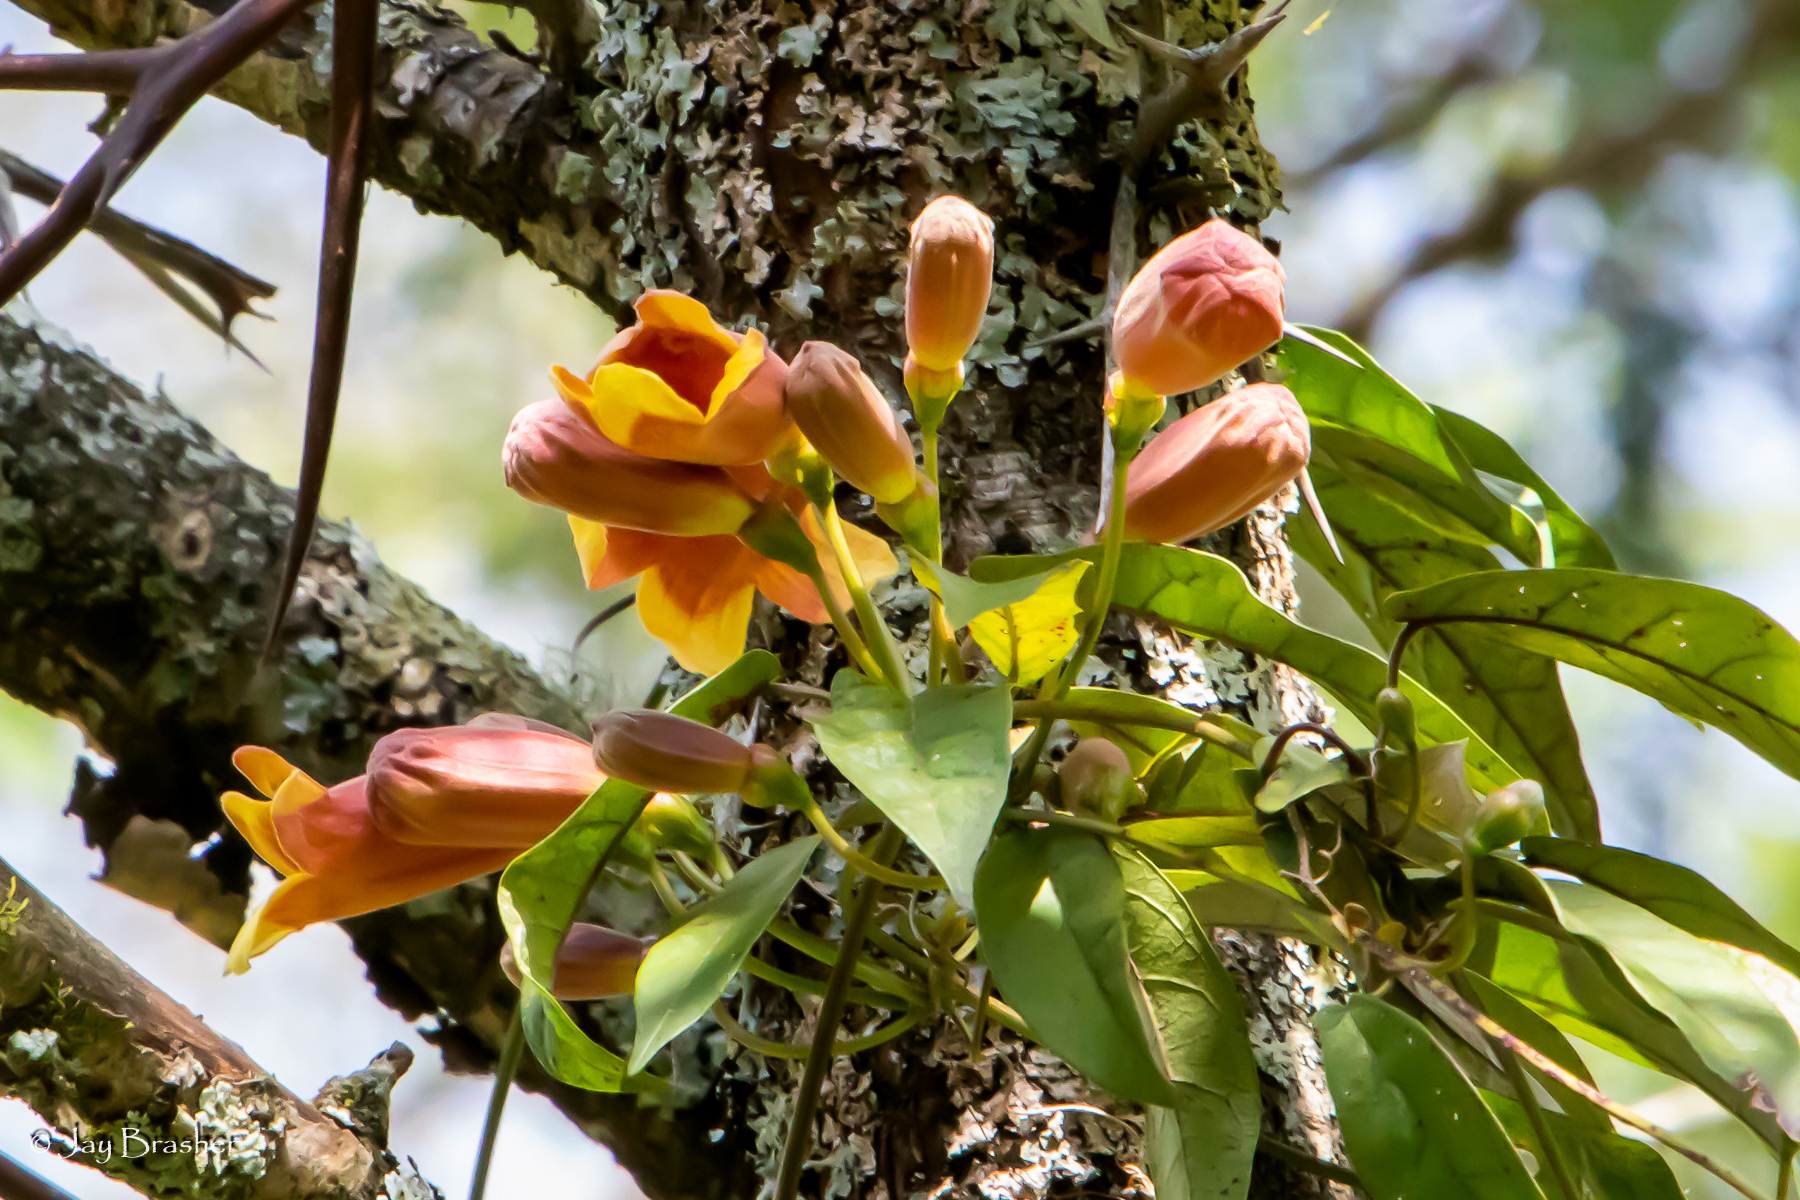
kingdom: Plantae
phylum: Tracheophyta
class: Magnoliopsida
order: Lamiales
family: Bignoniaceae
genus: Bignonia
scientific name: Bignonia capreolata
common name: Crossvine
